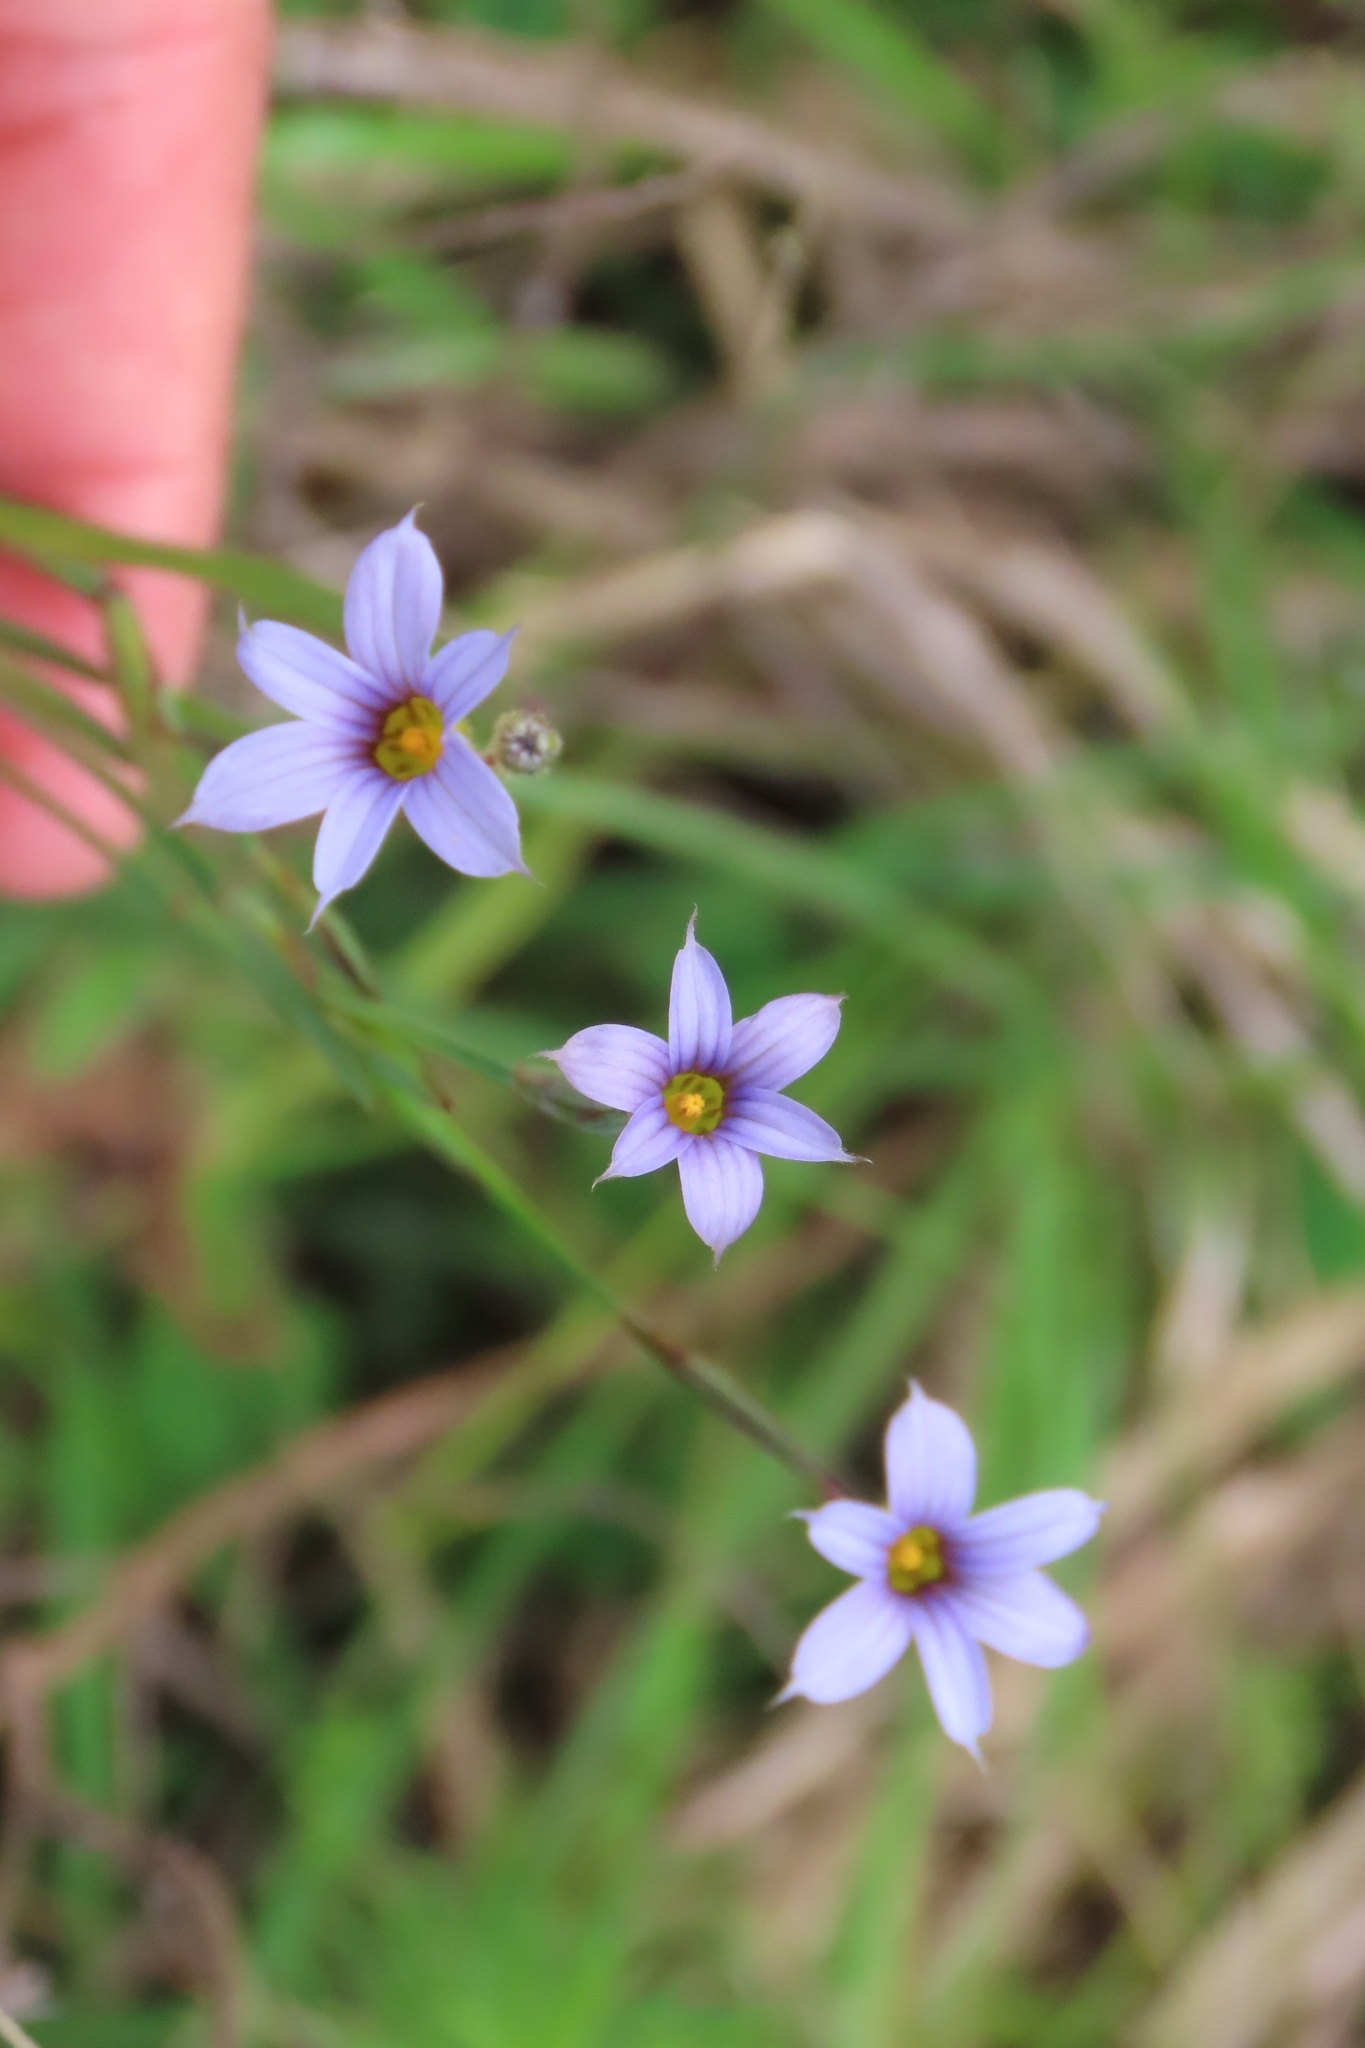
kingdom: Plantae
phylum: Tracheophyta
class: Liliopsida
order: Asparagales
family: Iridaceae
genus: Sisyrinchium
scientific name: Sisyrinchium platense
